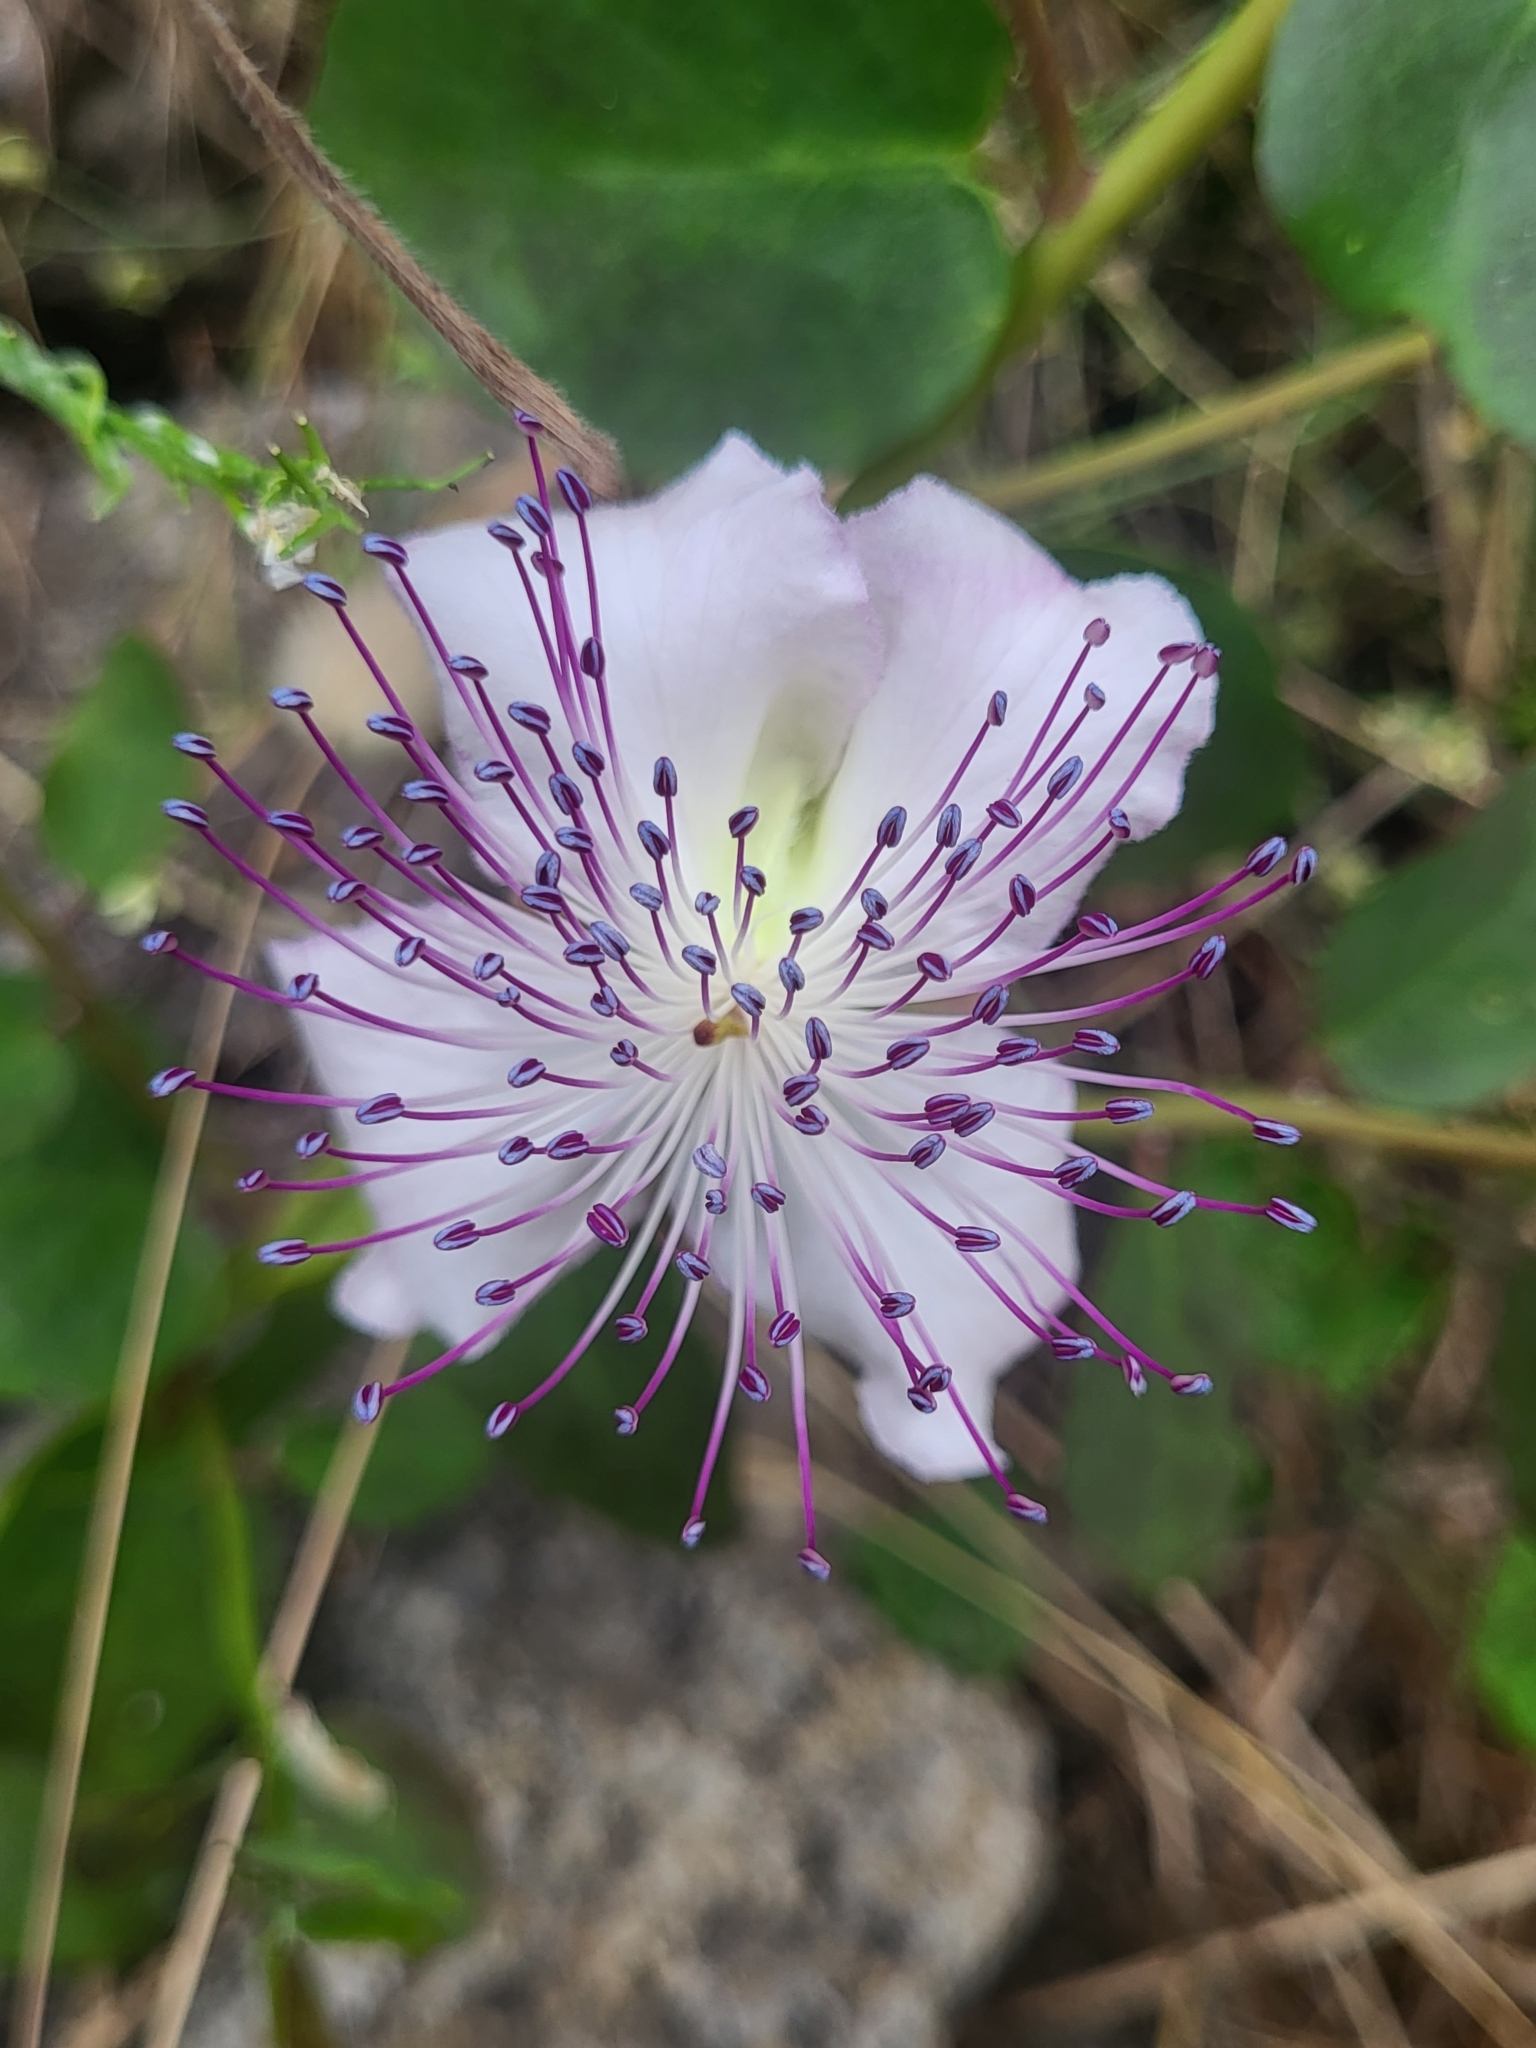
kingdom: Plantae
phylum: Tracheophyta
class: Magnoliopsida
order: Brassicales
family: Capparaceae
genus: Capparis
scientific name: Capparis orientalis
